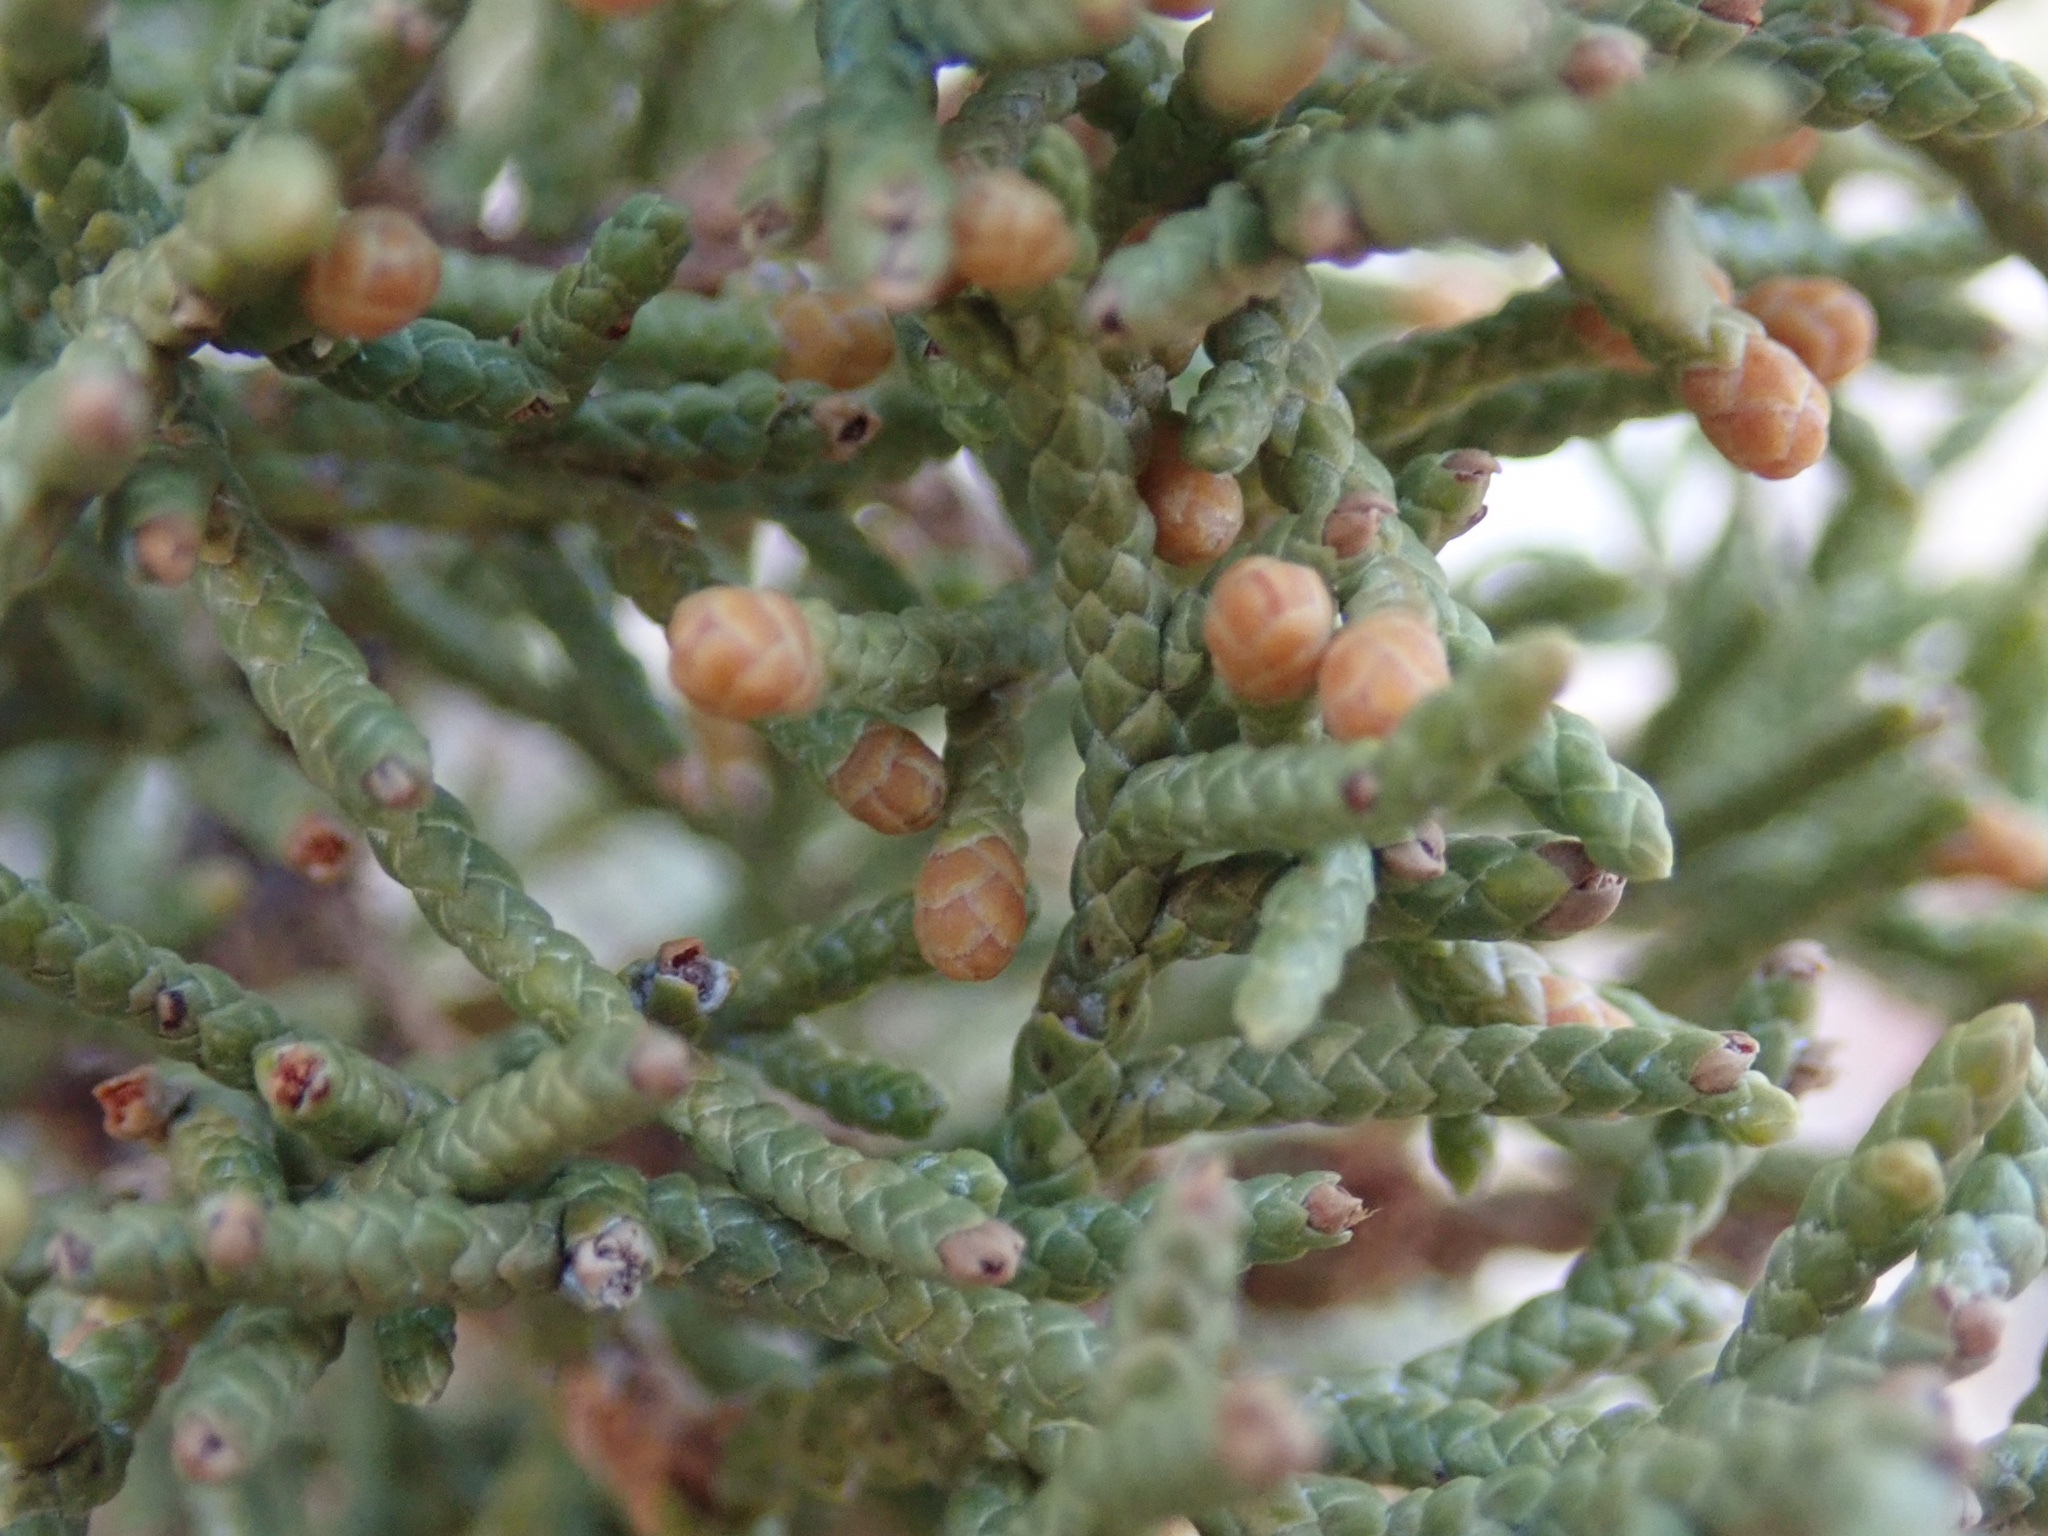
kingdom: Plantae
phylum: Tracheophyta
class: Pinopsida
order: Pinales
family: Cupressaceae
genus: Juniperus
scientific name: Juniperus osteosperma
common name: Utah juniper
